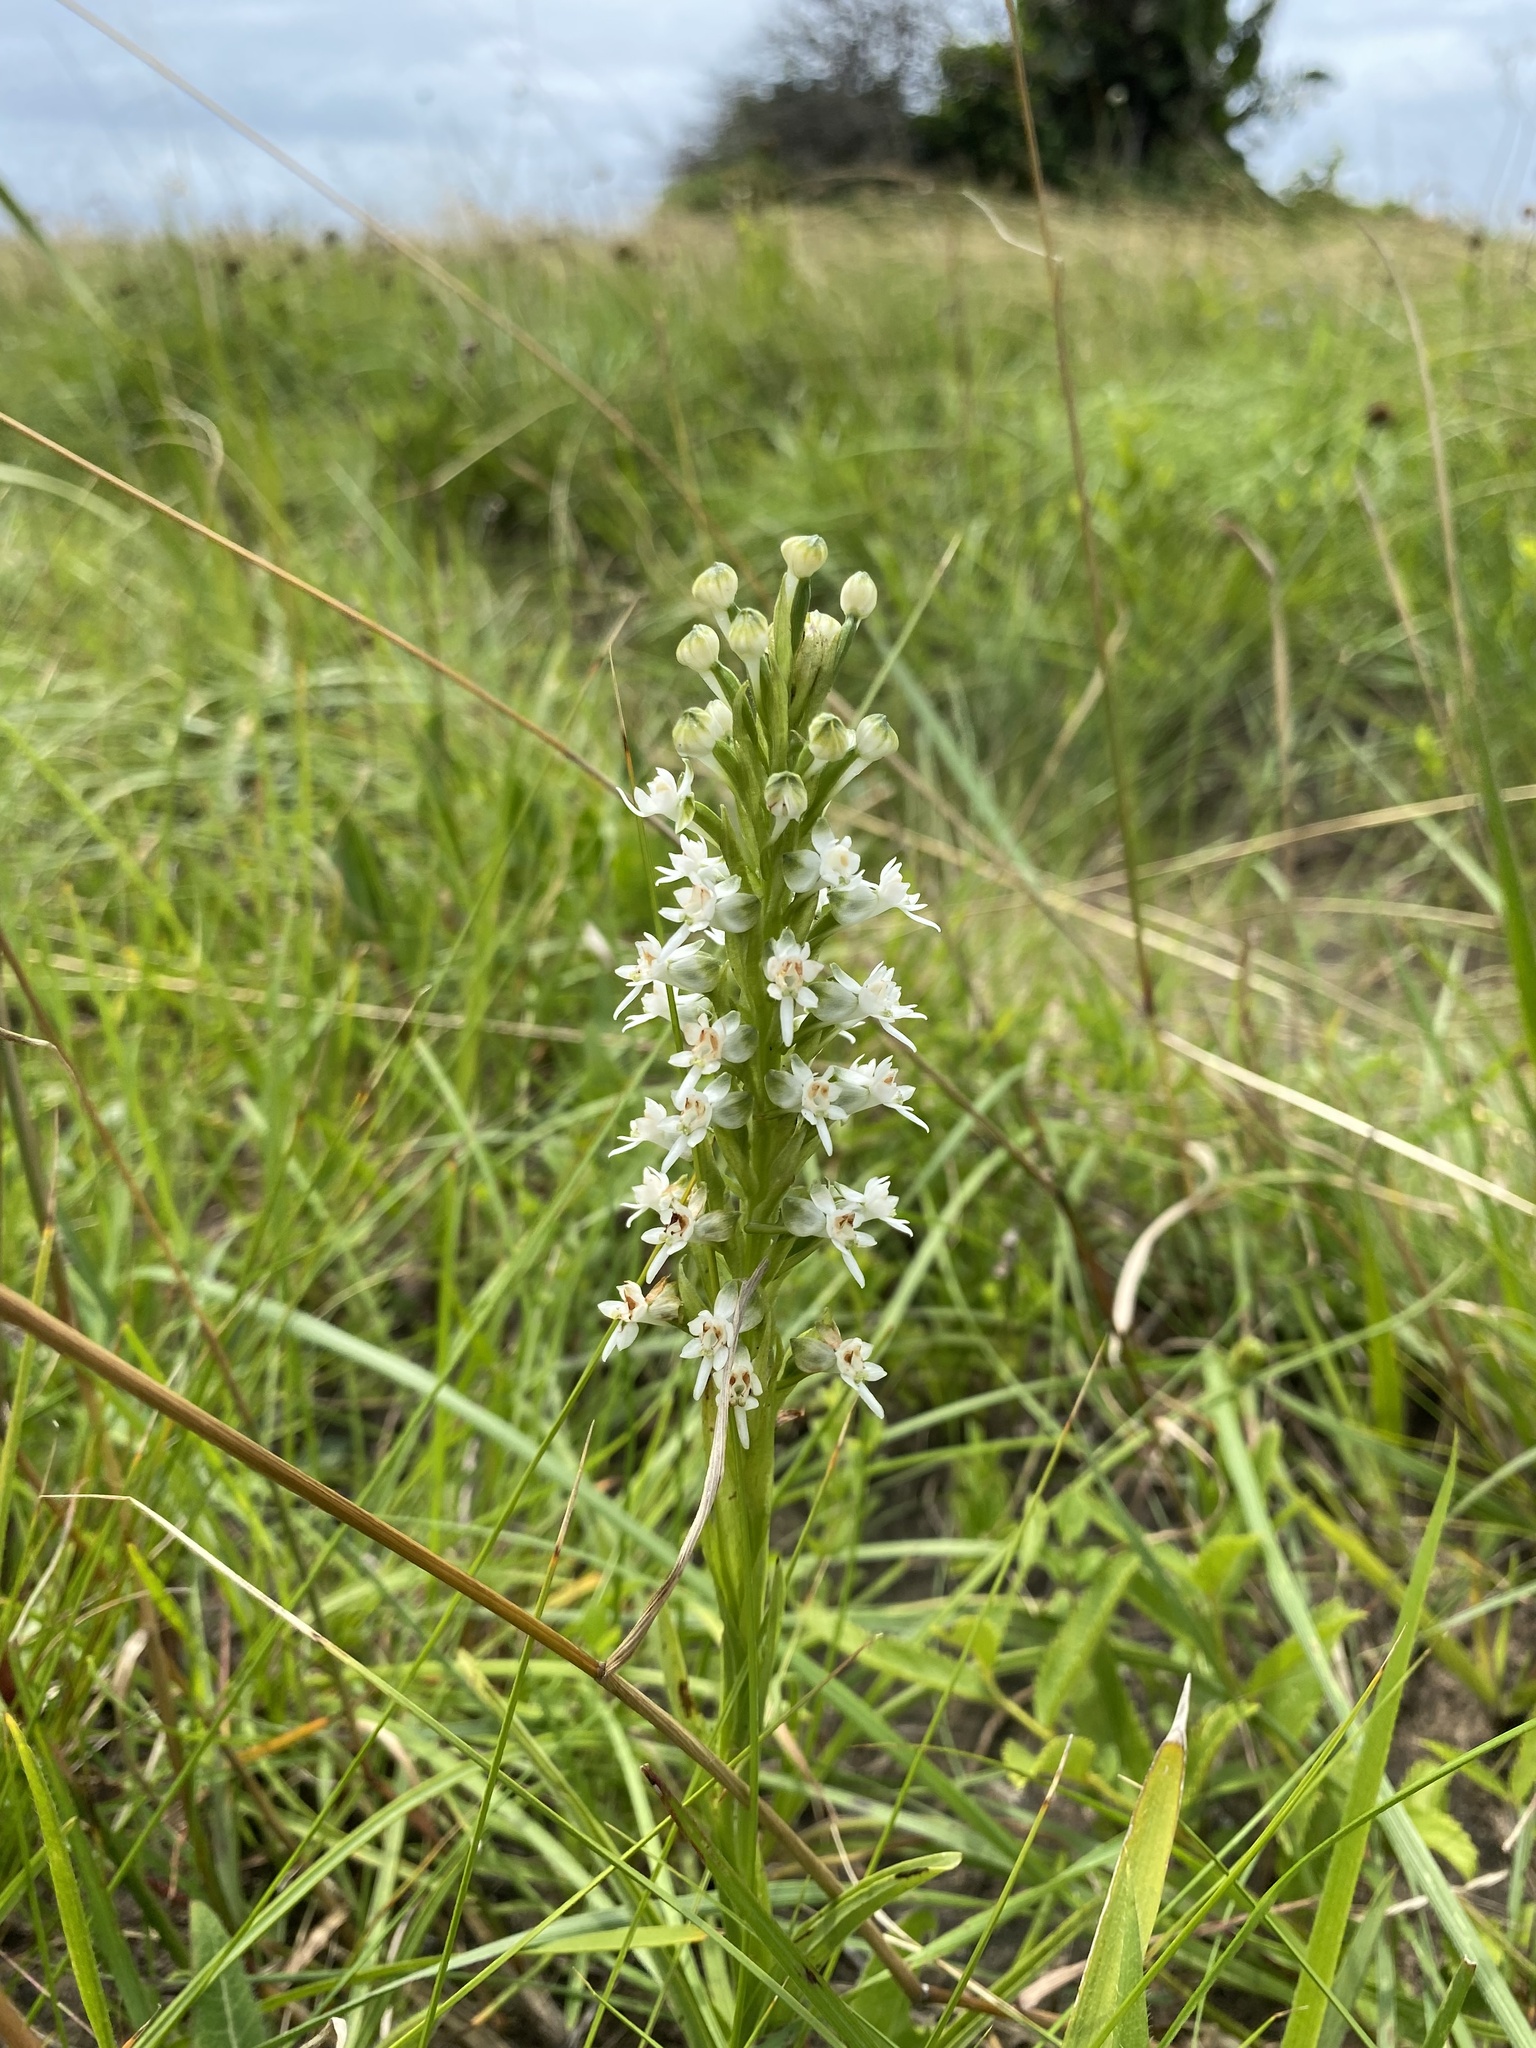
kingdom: Plantae
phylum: Tracheophyta
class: Liliopsida
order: Asparagales
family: Orchidaceae
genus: Habenaria
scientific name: Habenaria dives
